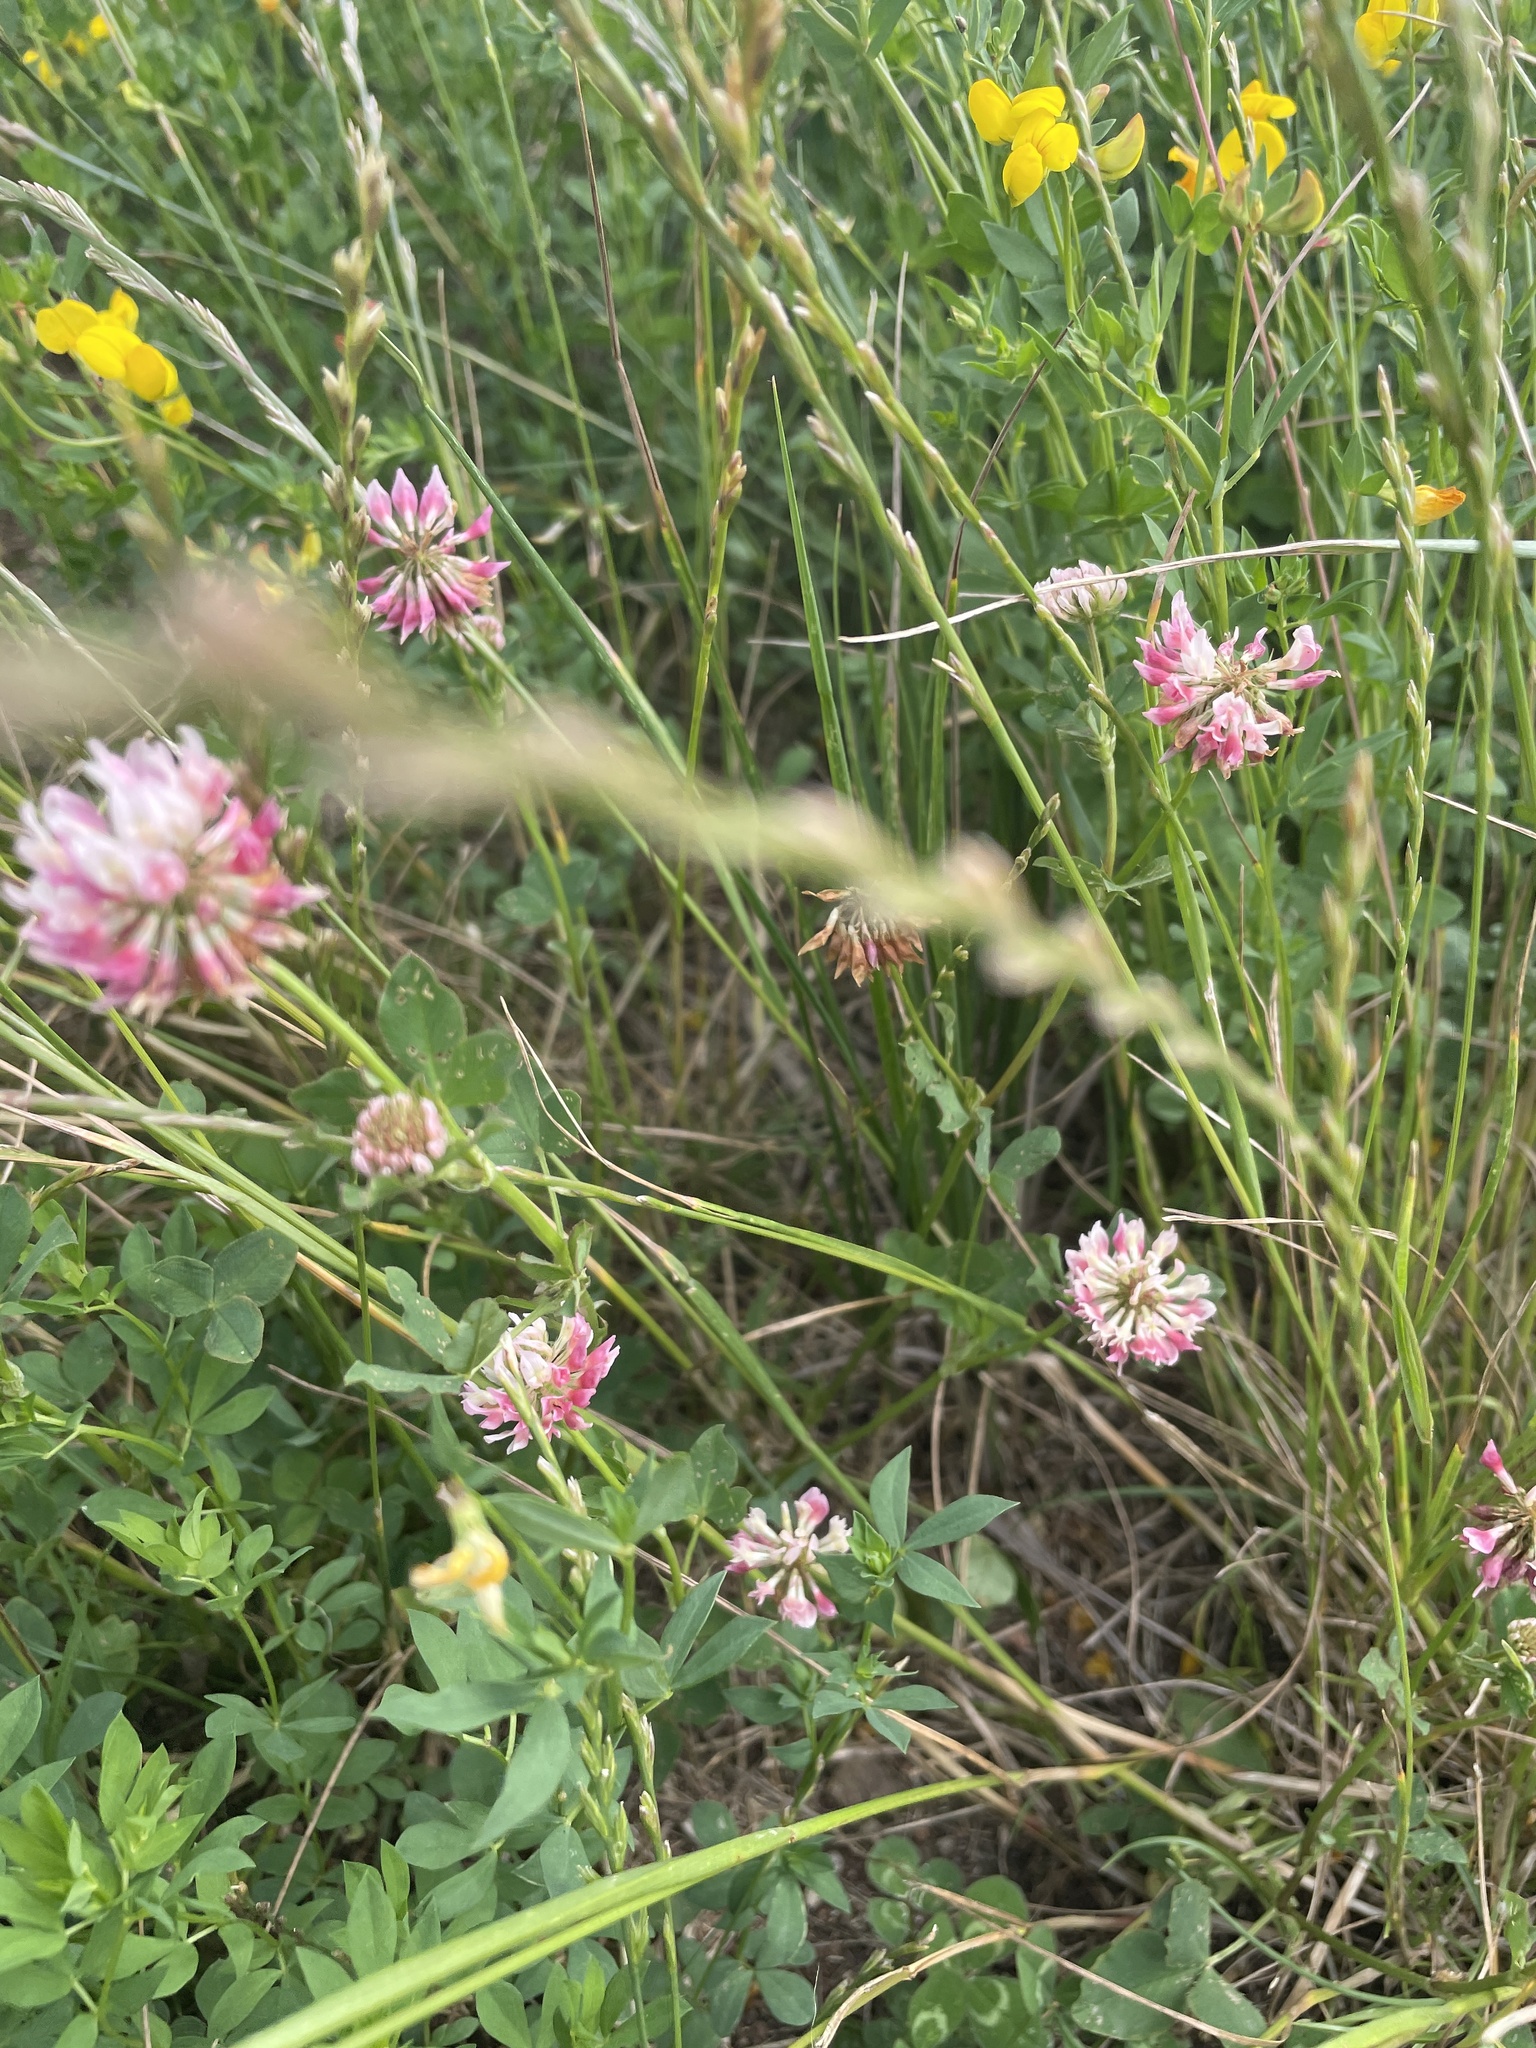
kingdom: Plantae
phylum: Tracheophyta
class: Magnoliopsida
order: Fabales
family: Fabaceae
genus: Trifolium
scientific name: Trifolium hybridum
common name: Alsike clover
